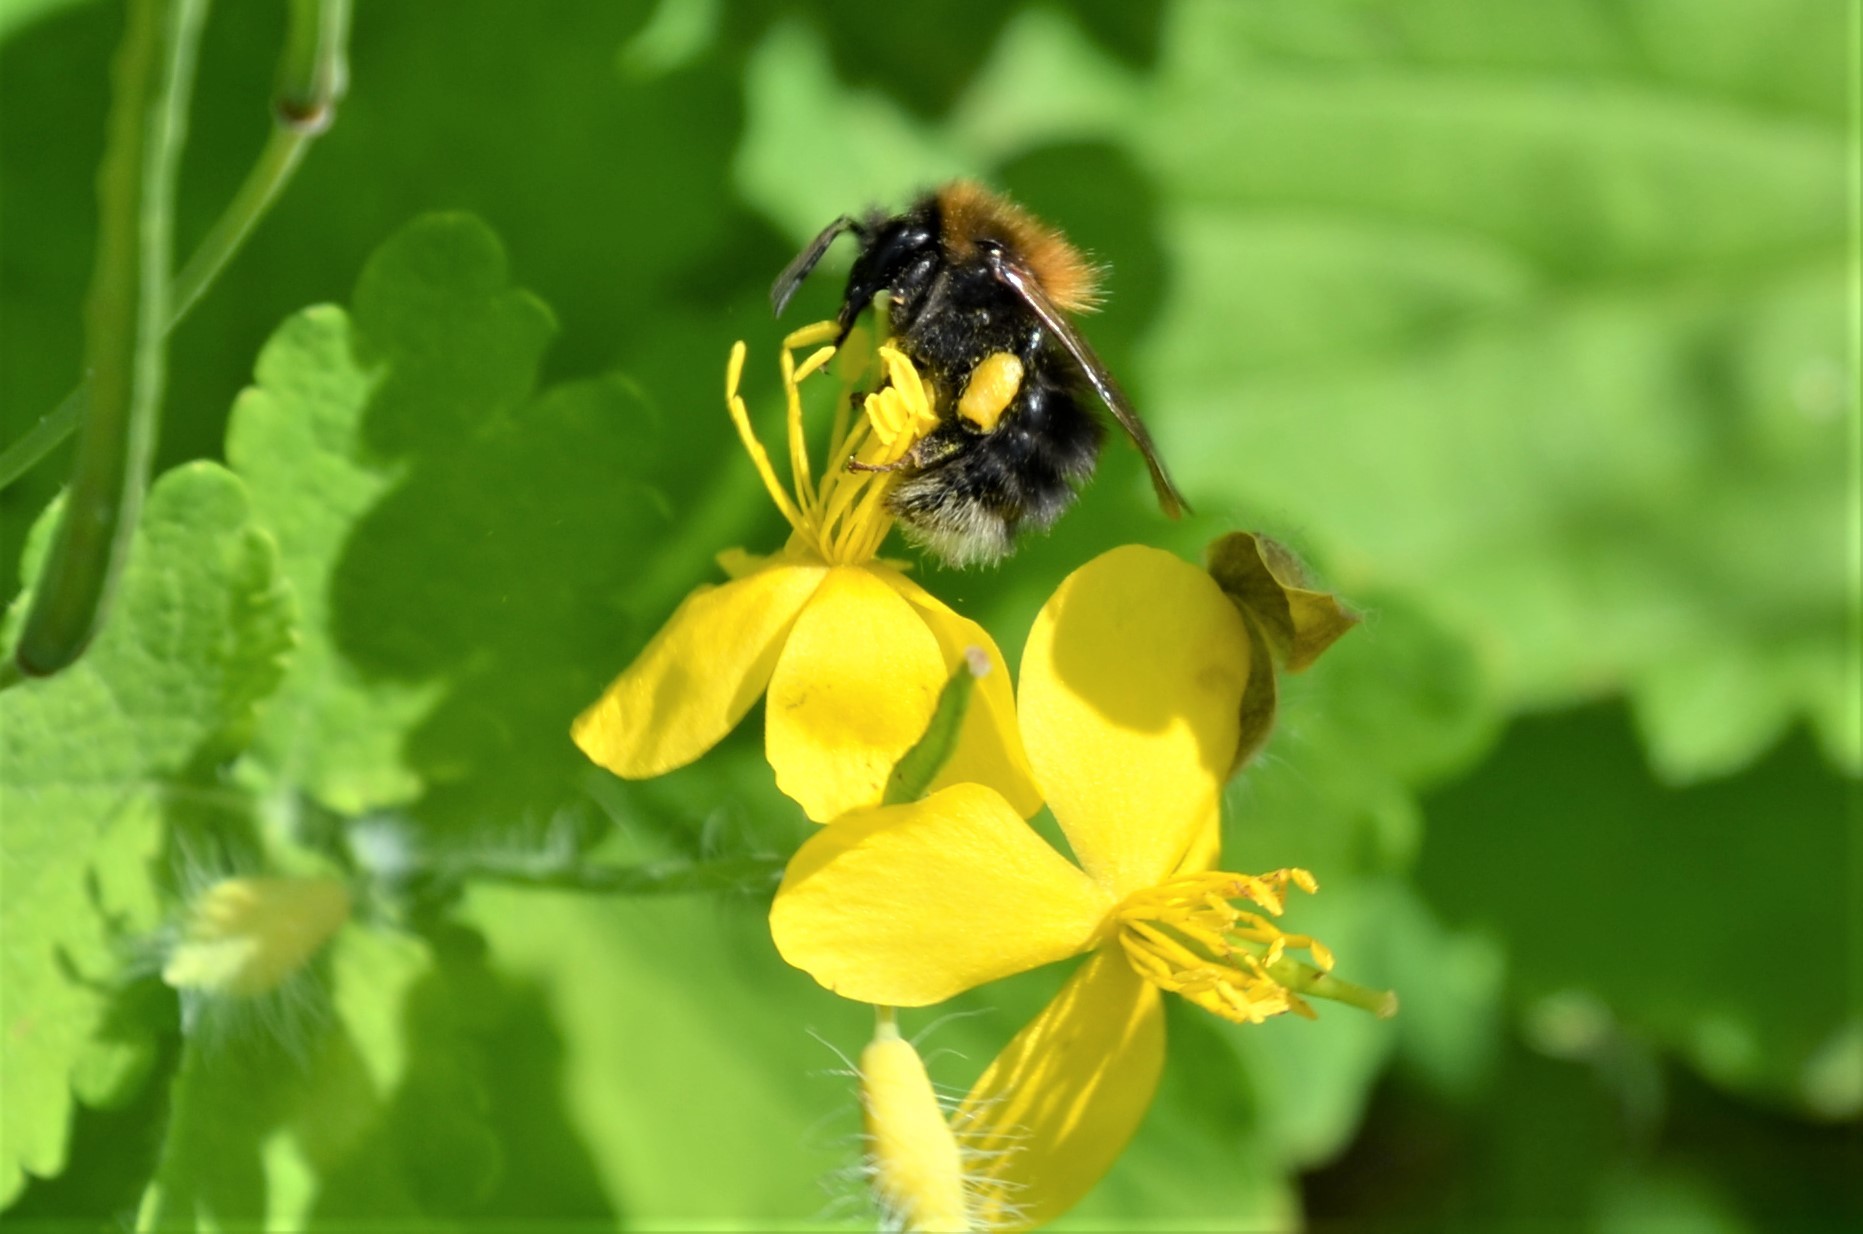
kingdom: Animalia
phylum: Arthropoda
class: Insecta
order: Hymenoptera
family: Apidae
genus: Bombus
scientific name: Bombus hypnorum
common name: New garden bumblebee
